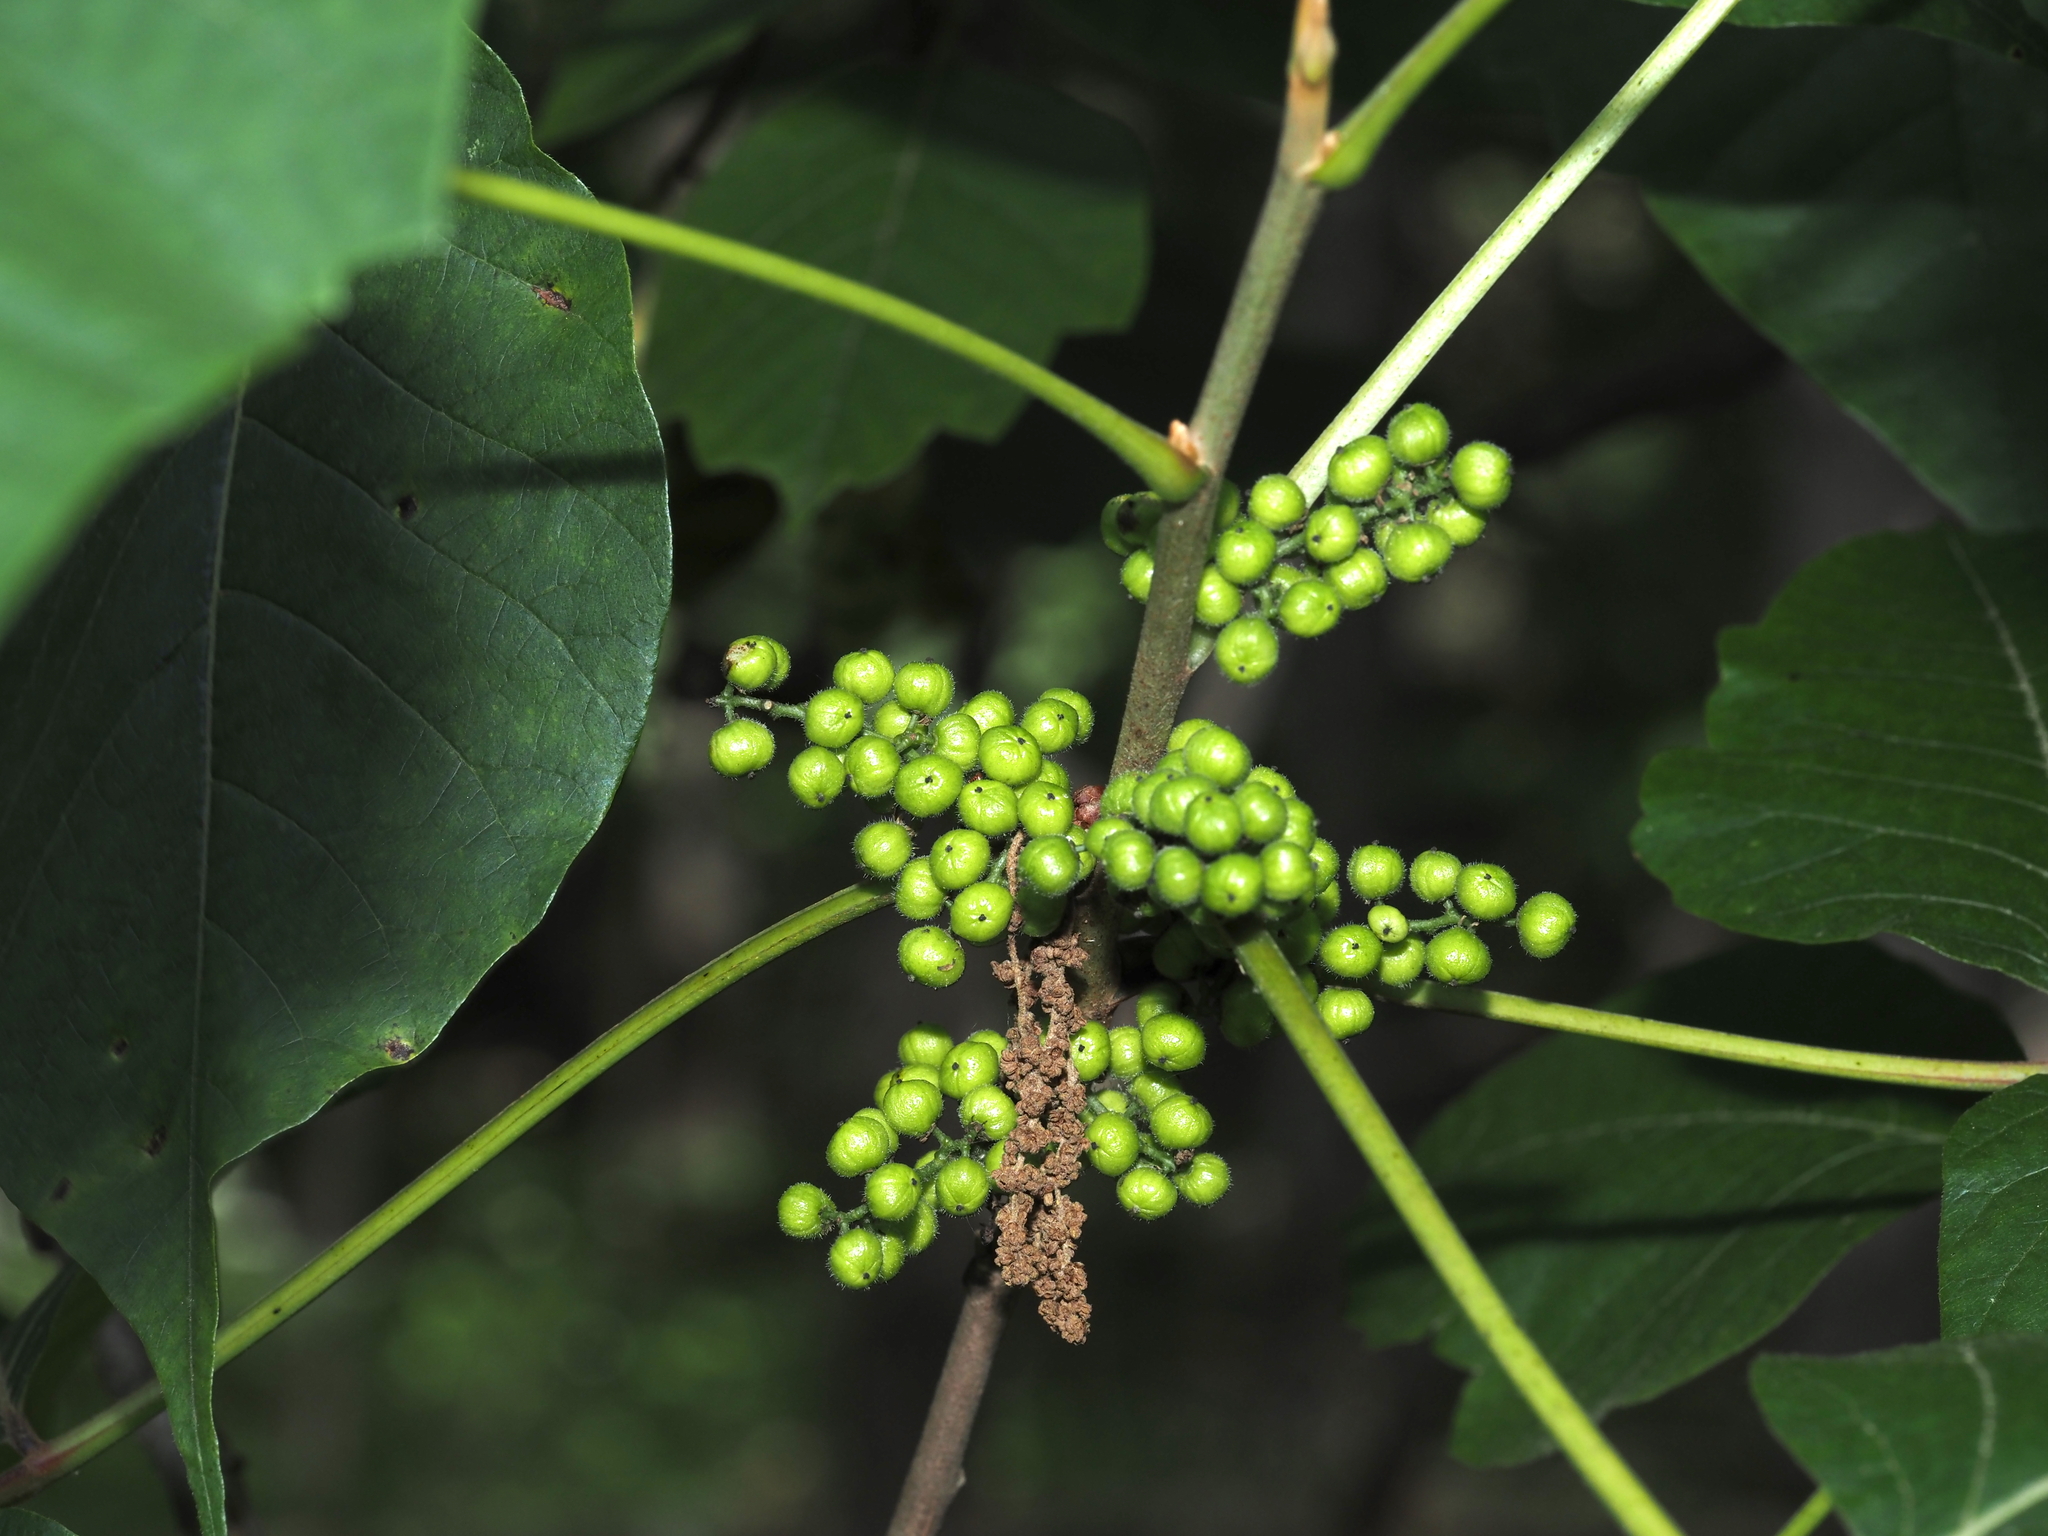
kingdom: Plantae
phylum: Tracheophyta
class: Magnoliopsida
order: Sapindales
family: Anacardiaceae
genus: Toxicodendron
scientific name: Toxicodendron radicans
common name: Poison ivy
